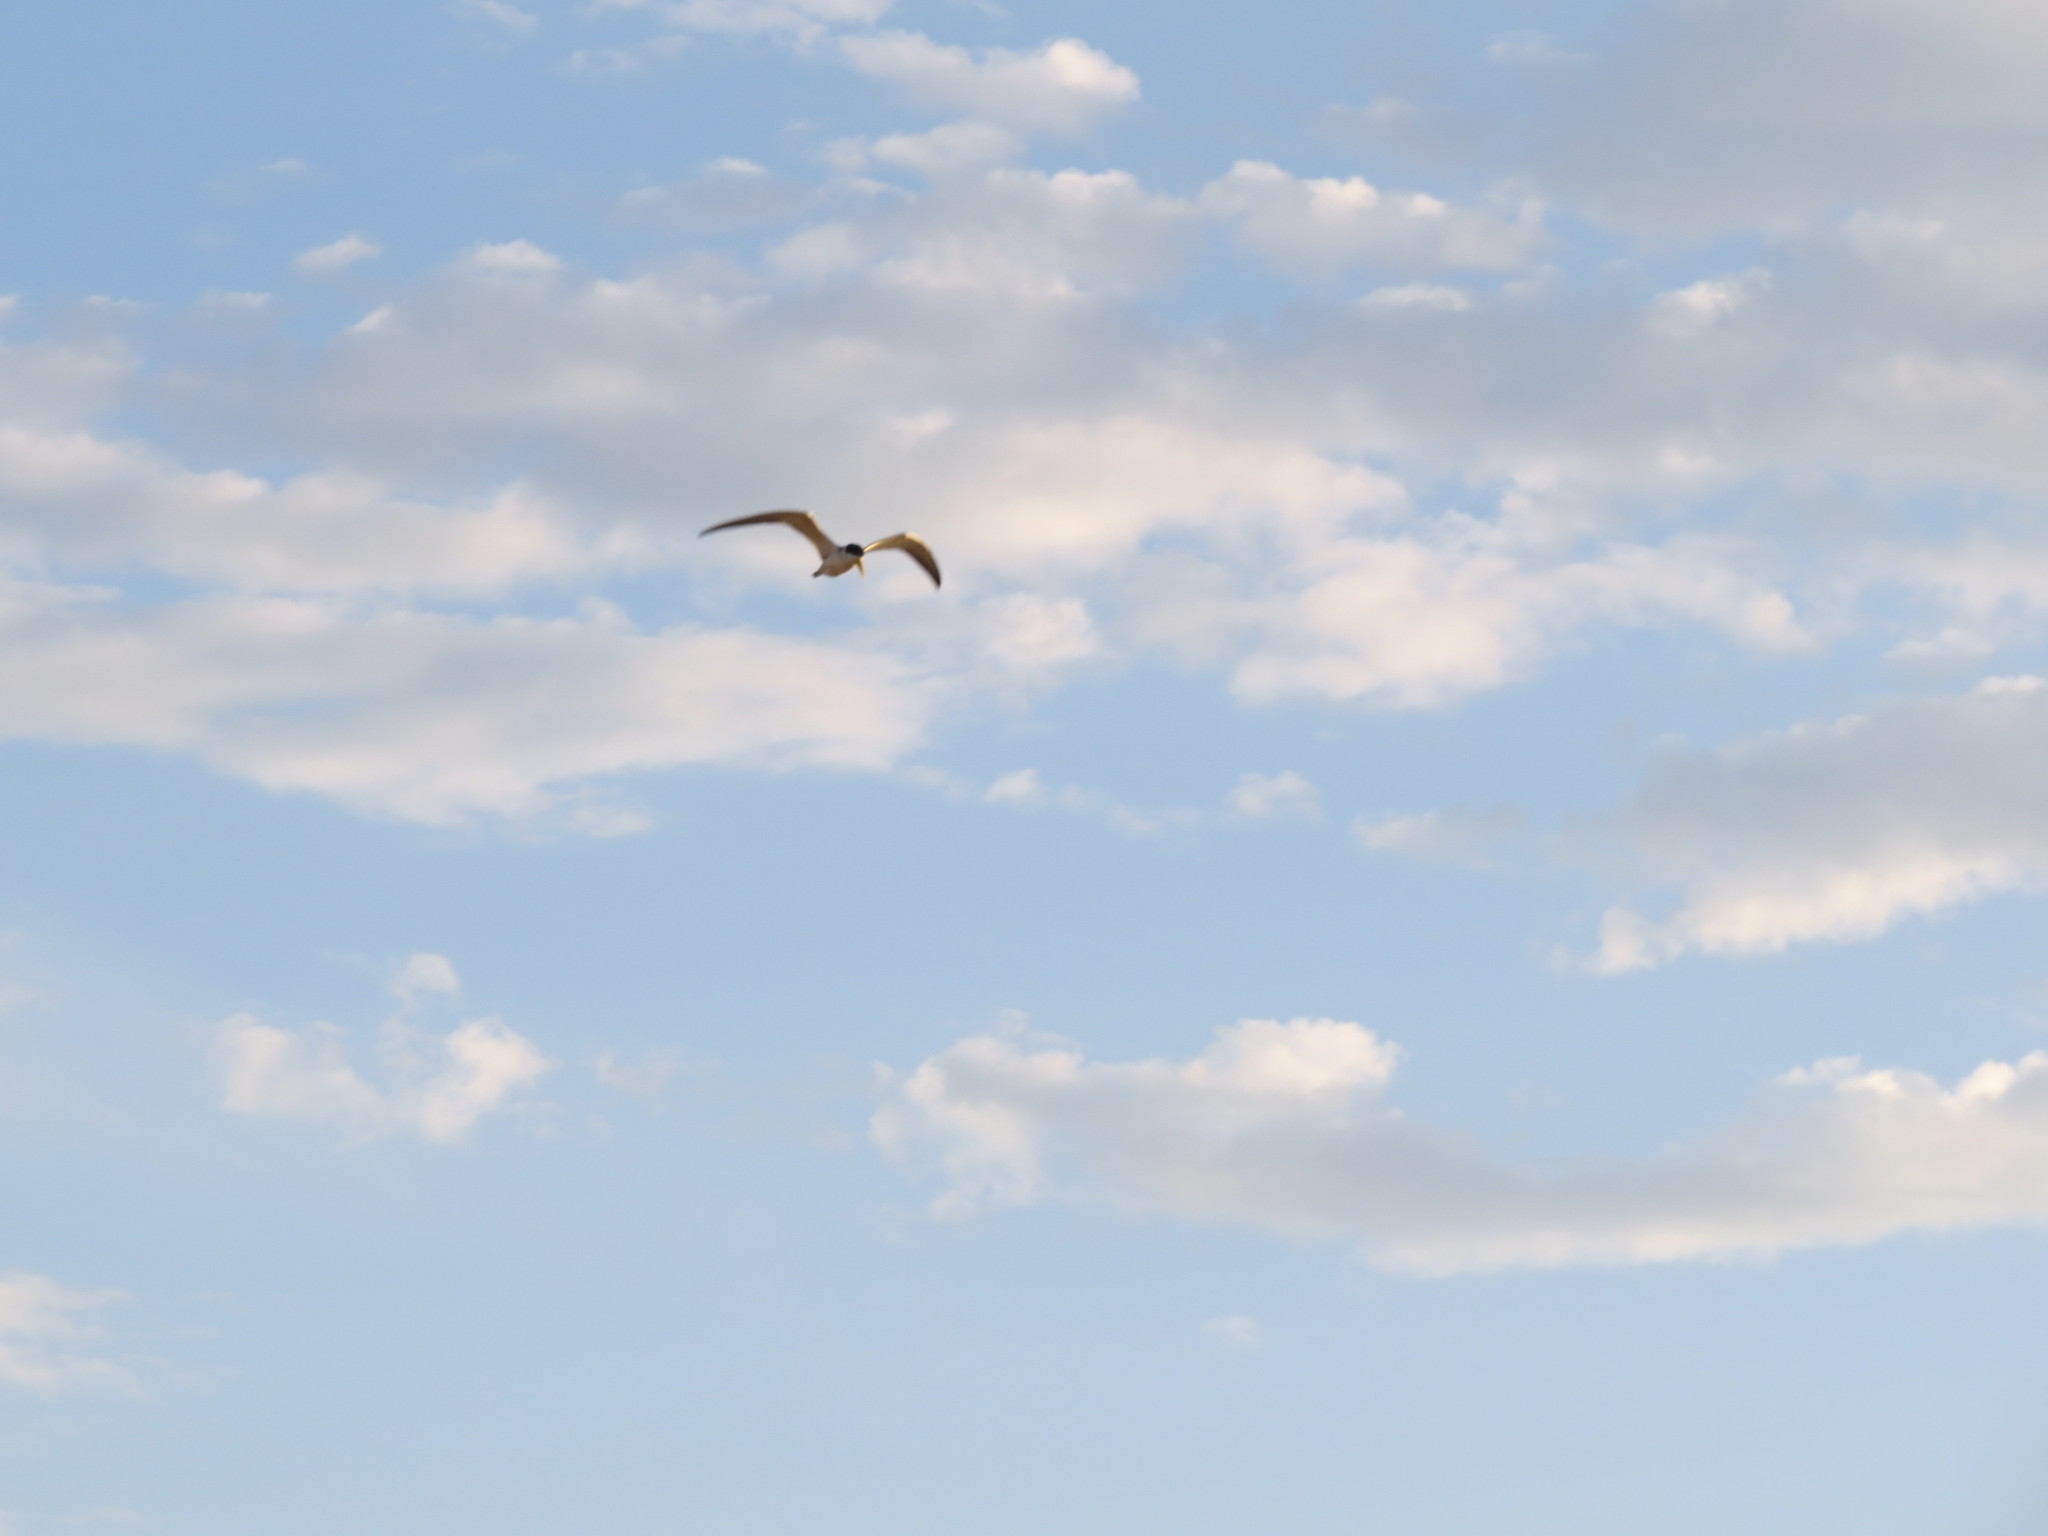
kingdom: Animalia
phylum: Chordata
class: Aves
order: Charadriiformes
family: Laridae
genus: Phaetusa
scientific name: Phaetusa simplex
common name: Large-billed tern
